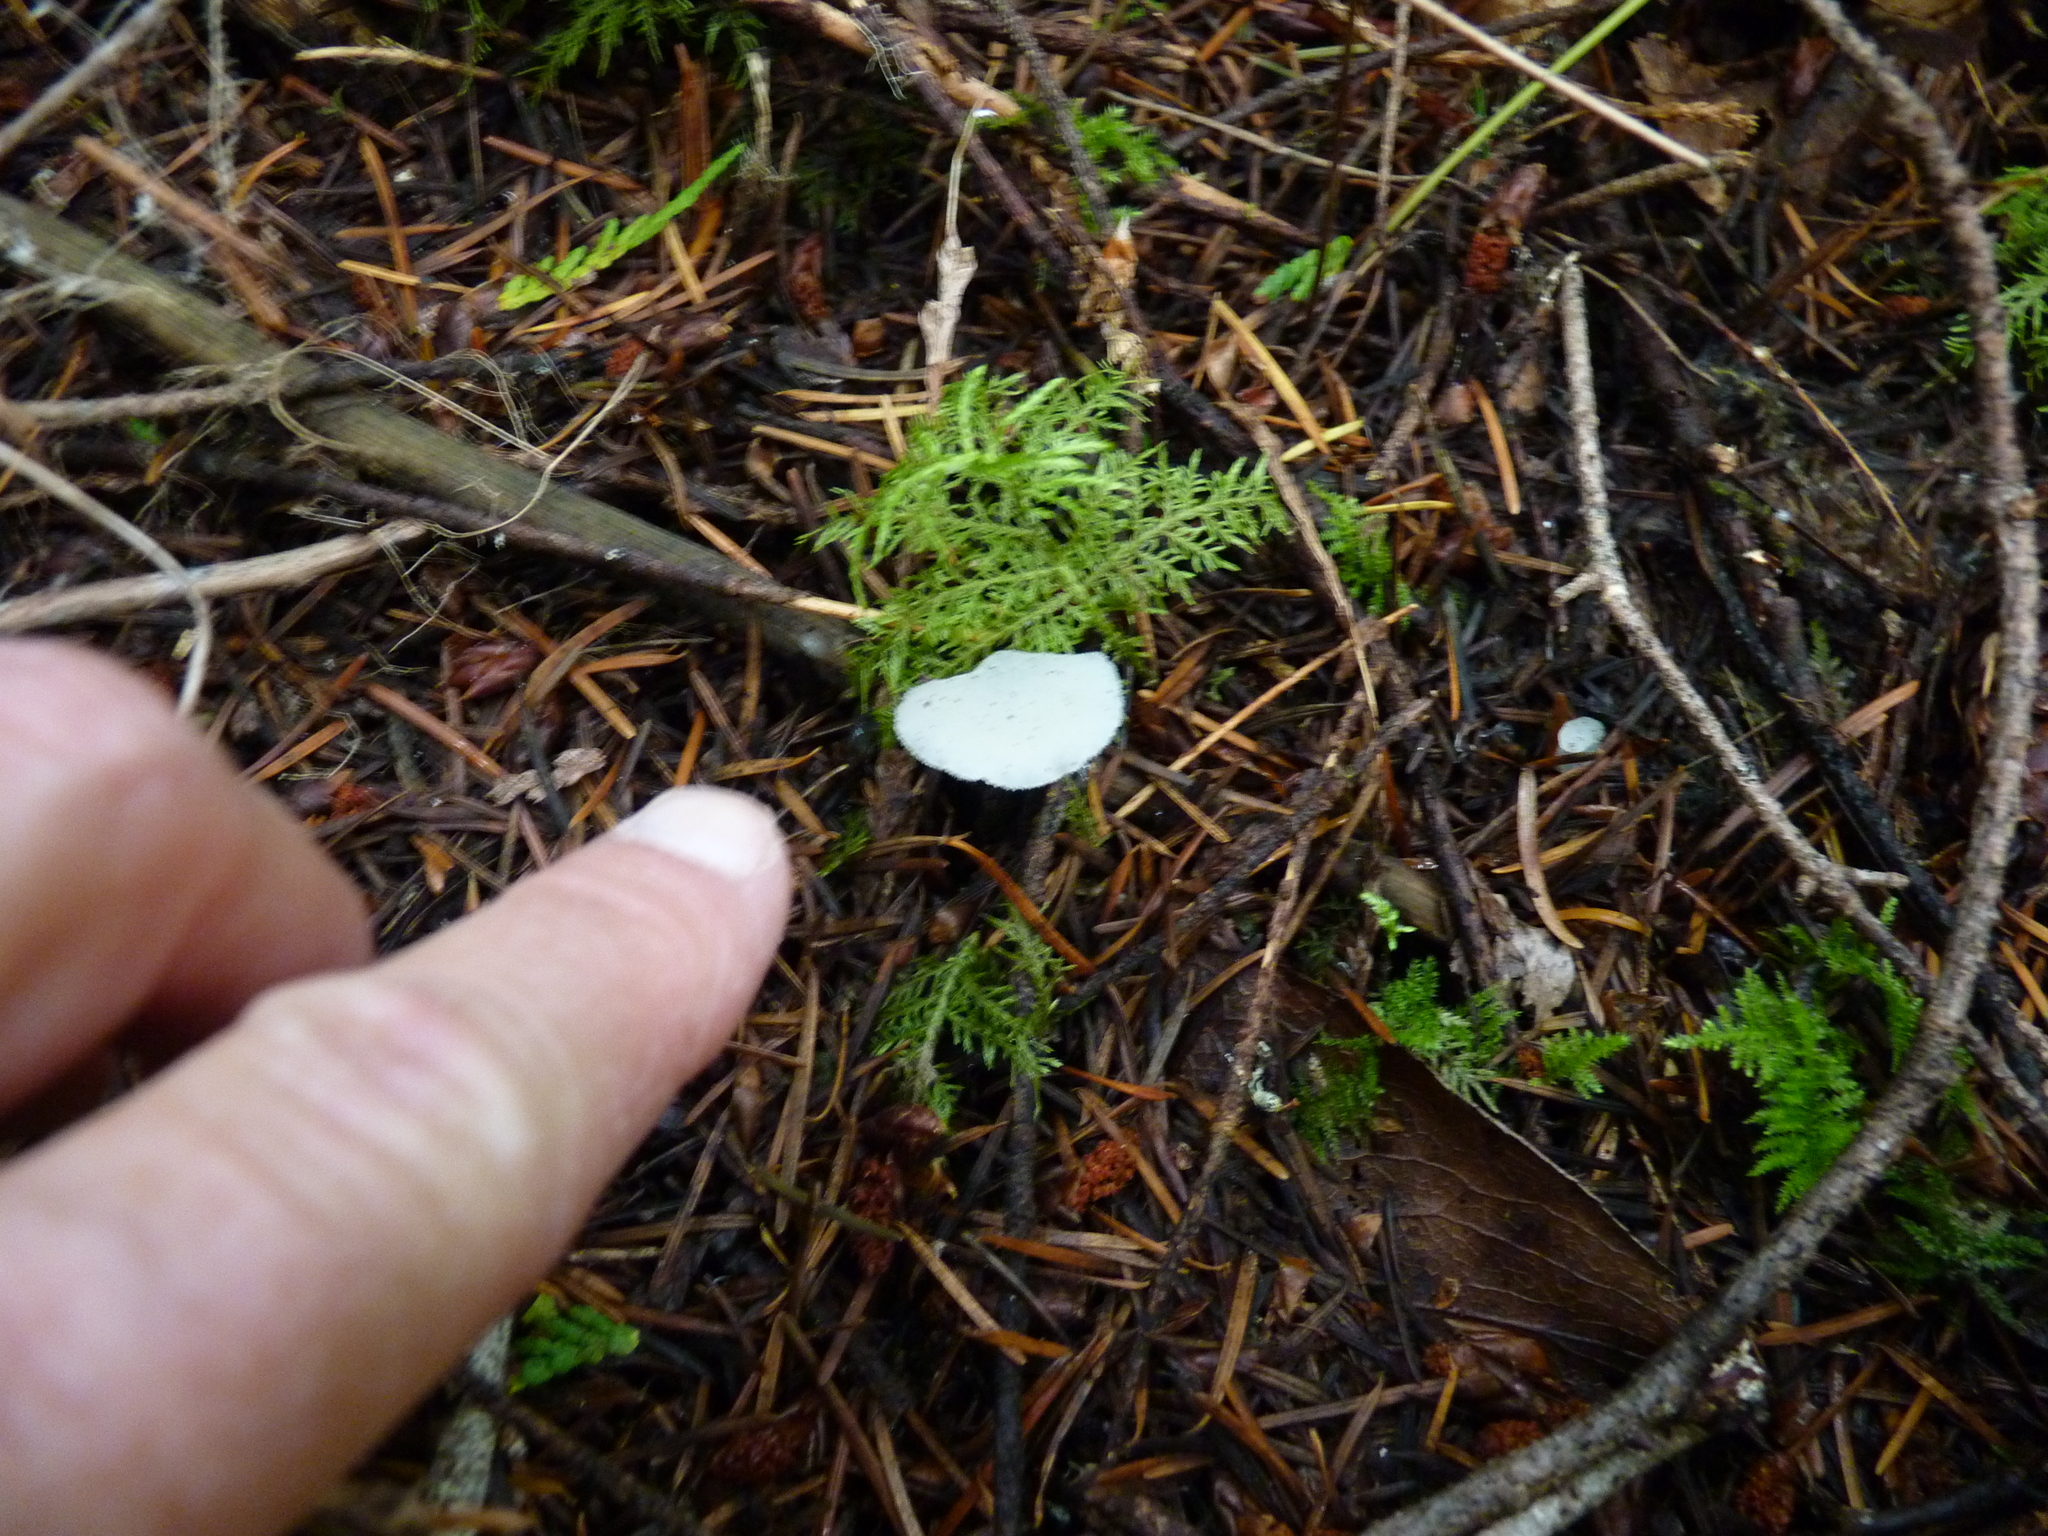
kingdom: Fungi
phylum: Basidiomycota
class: Agaricomycetes
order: Auriculariales
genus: Pseudohydnum
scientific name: Pseudohydnum gelatinosum
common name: Jelly tongue
